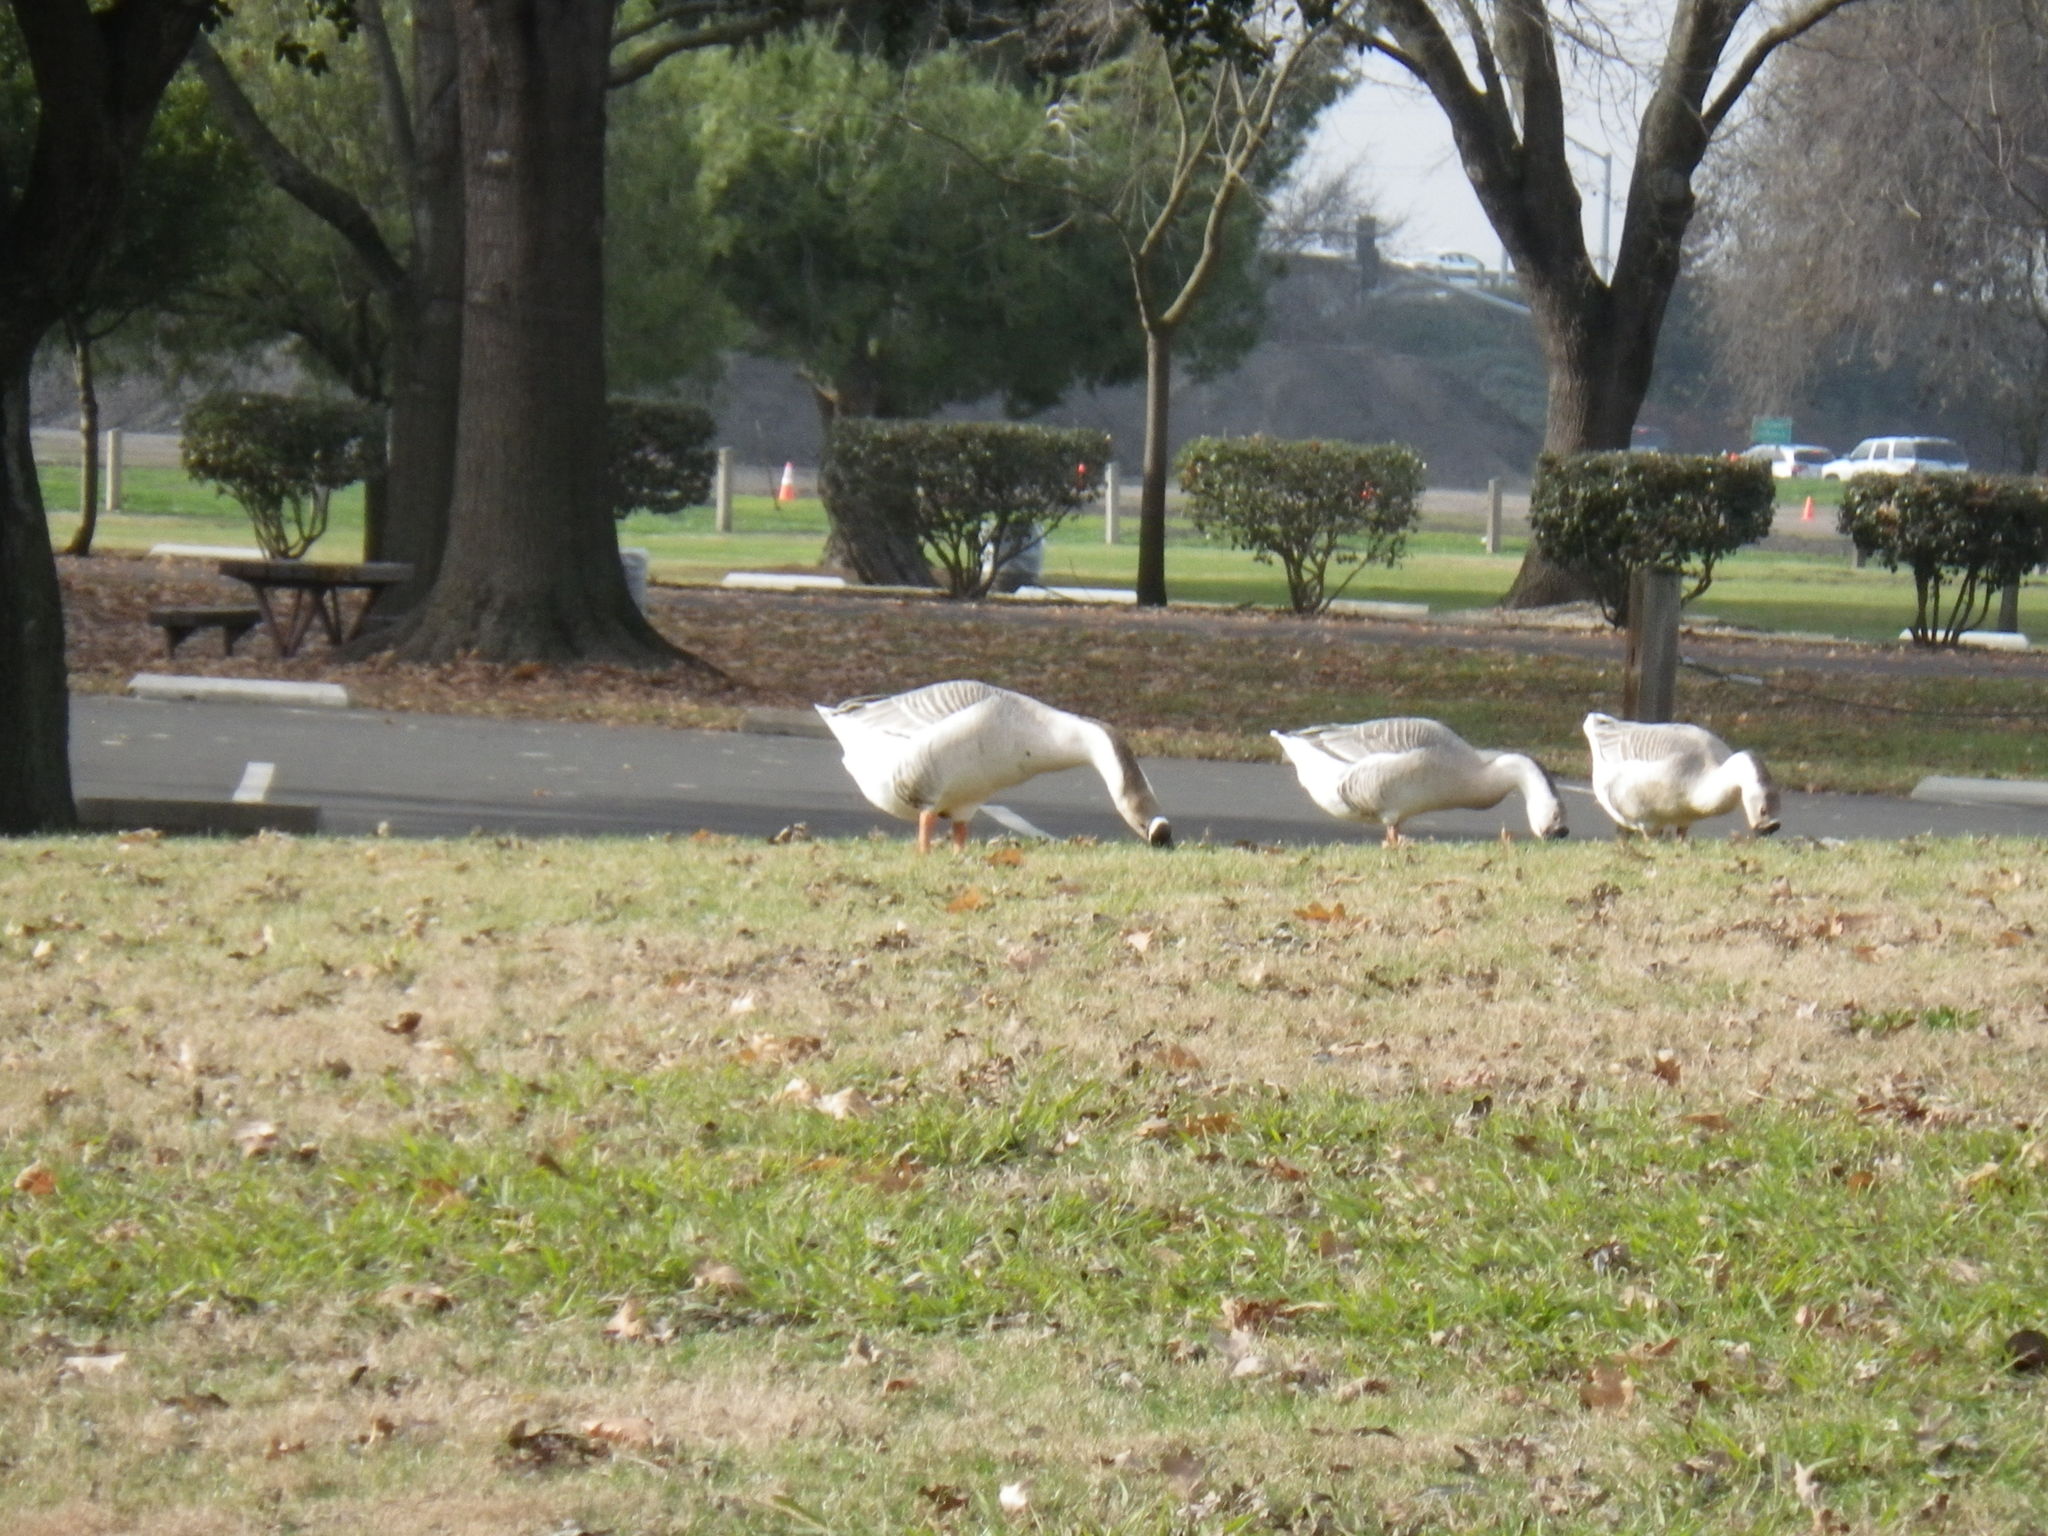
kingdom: Animalia
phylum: Chordata
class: Aves
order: Anseriformes
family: Anatidae
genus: Anser
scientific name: Anser cygnoides
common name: Swan goose
